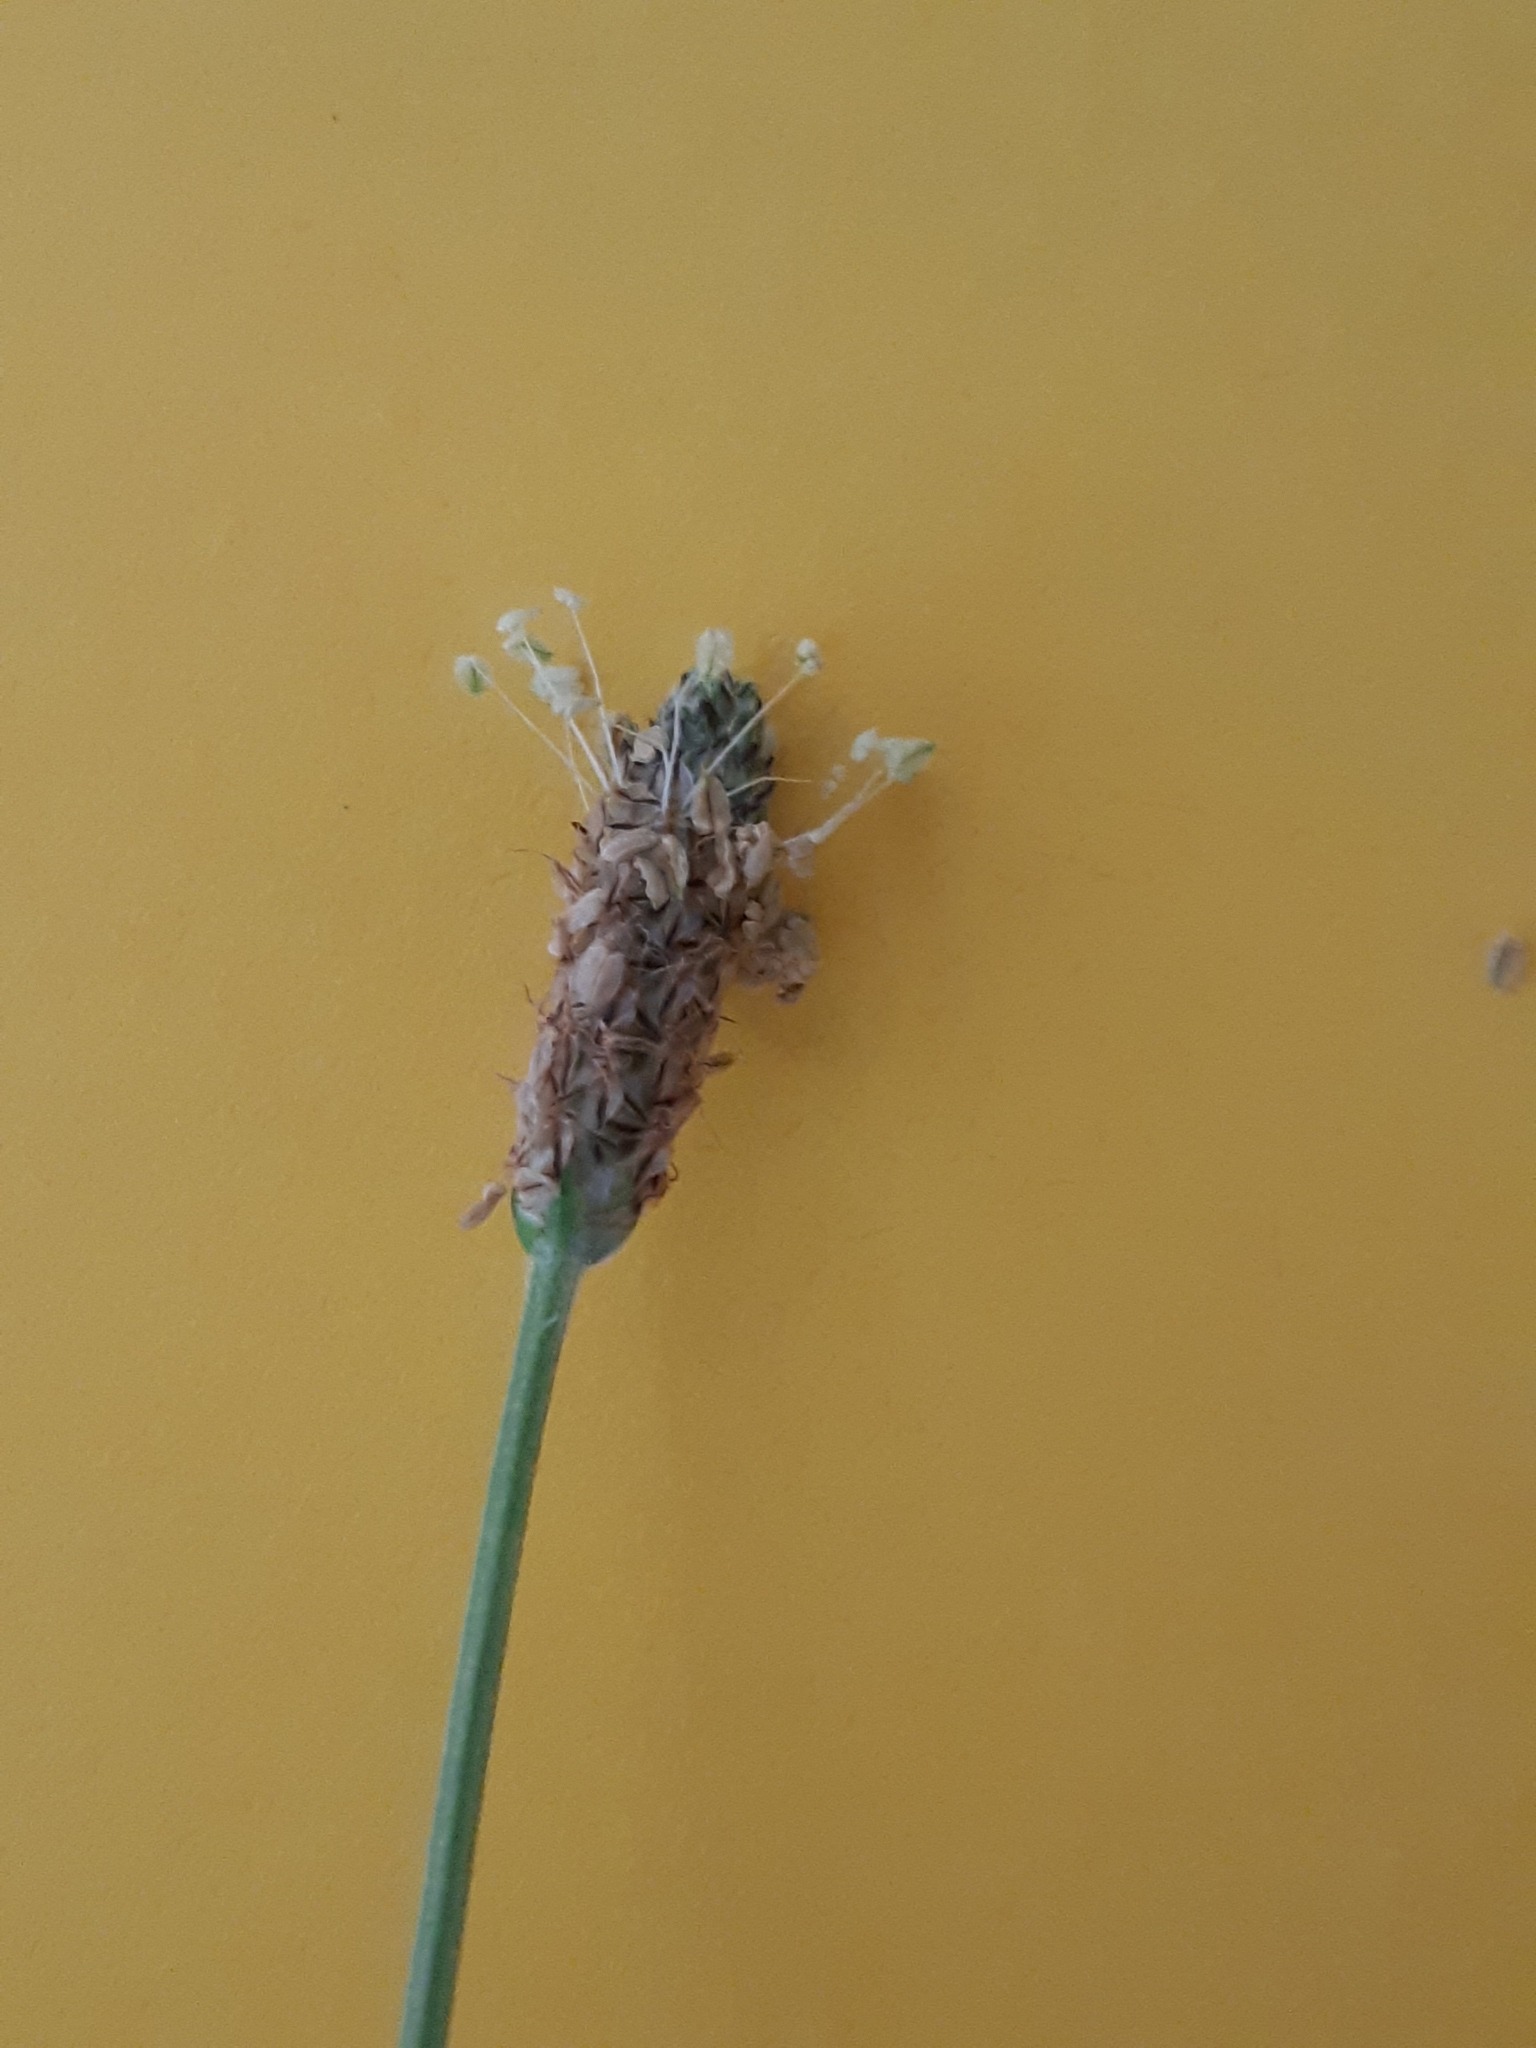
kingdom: Plantae
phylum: Tracheophyta
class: Magnoliopsida
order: Lamiales
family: Plantaginaceae
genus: Plantago
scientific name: Plantago lanceolata
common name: Ribwort plantain
